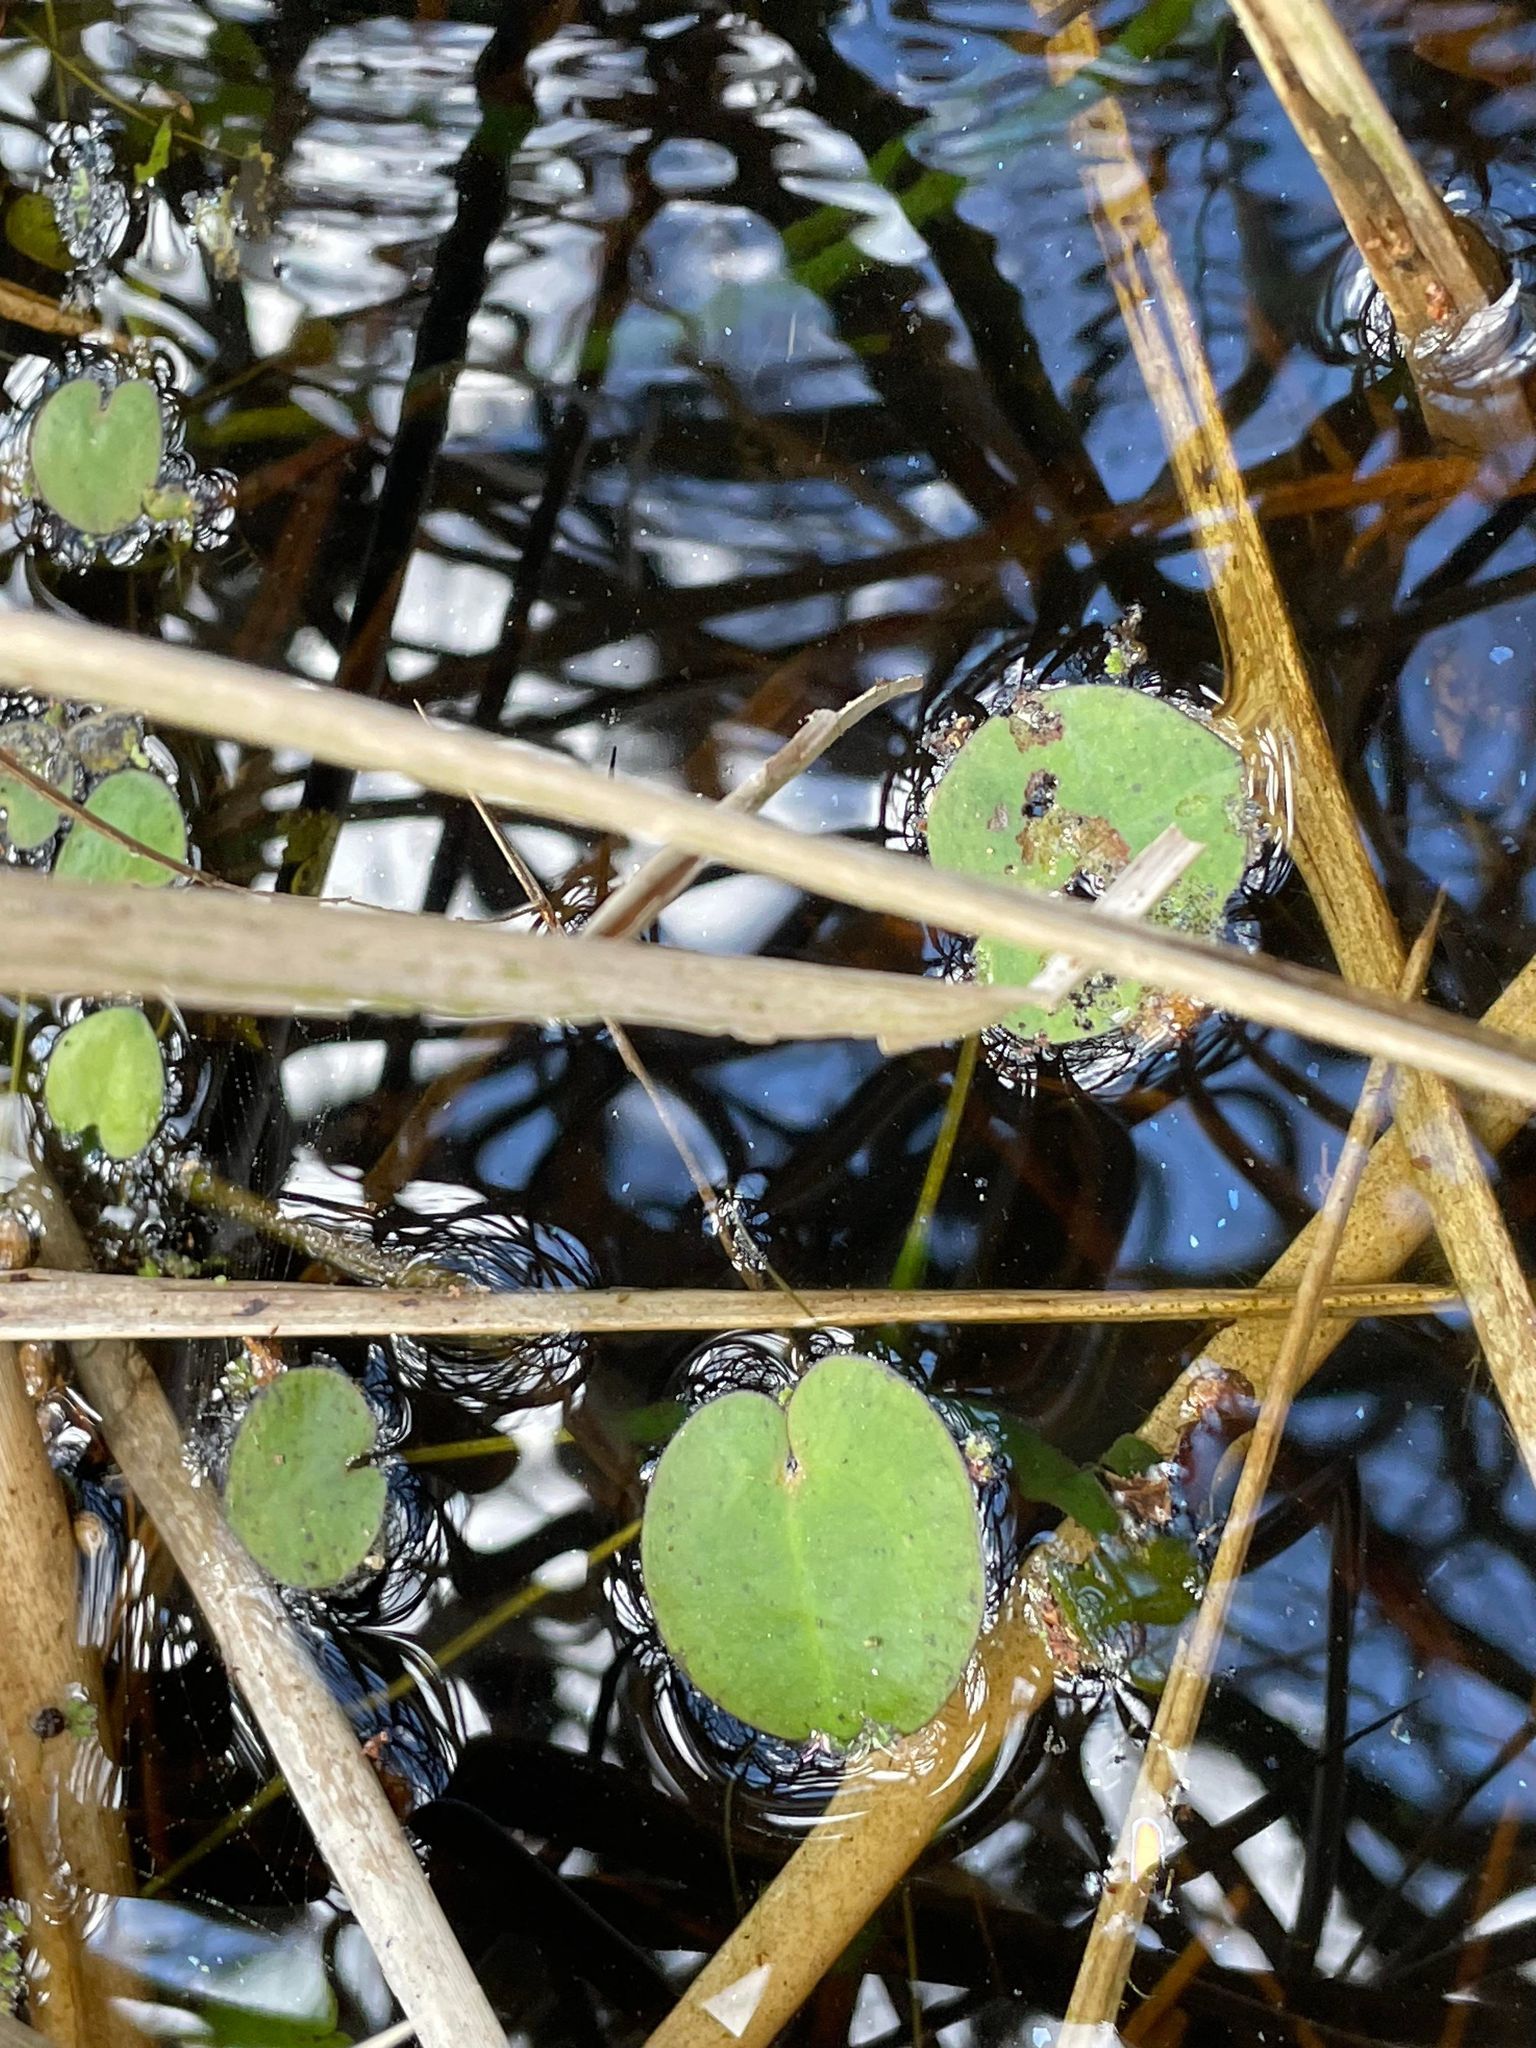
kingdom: Plantae
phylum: Tracheophyta
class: Liliopsida
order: Alismatales
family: Hydrocharitaceae
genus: Hydrocharis
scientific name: Hydrocharis spongia
